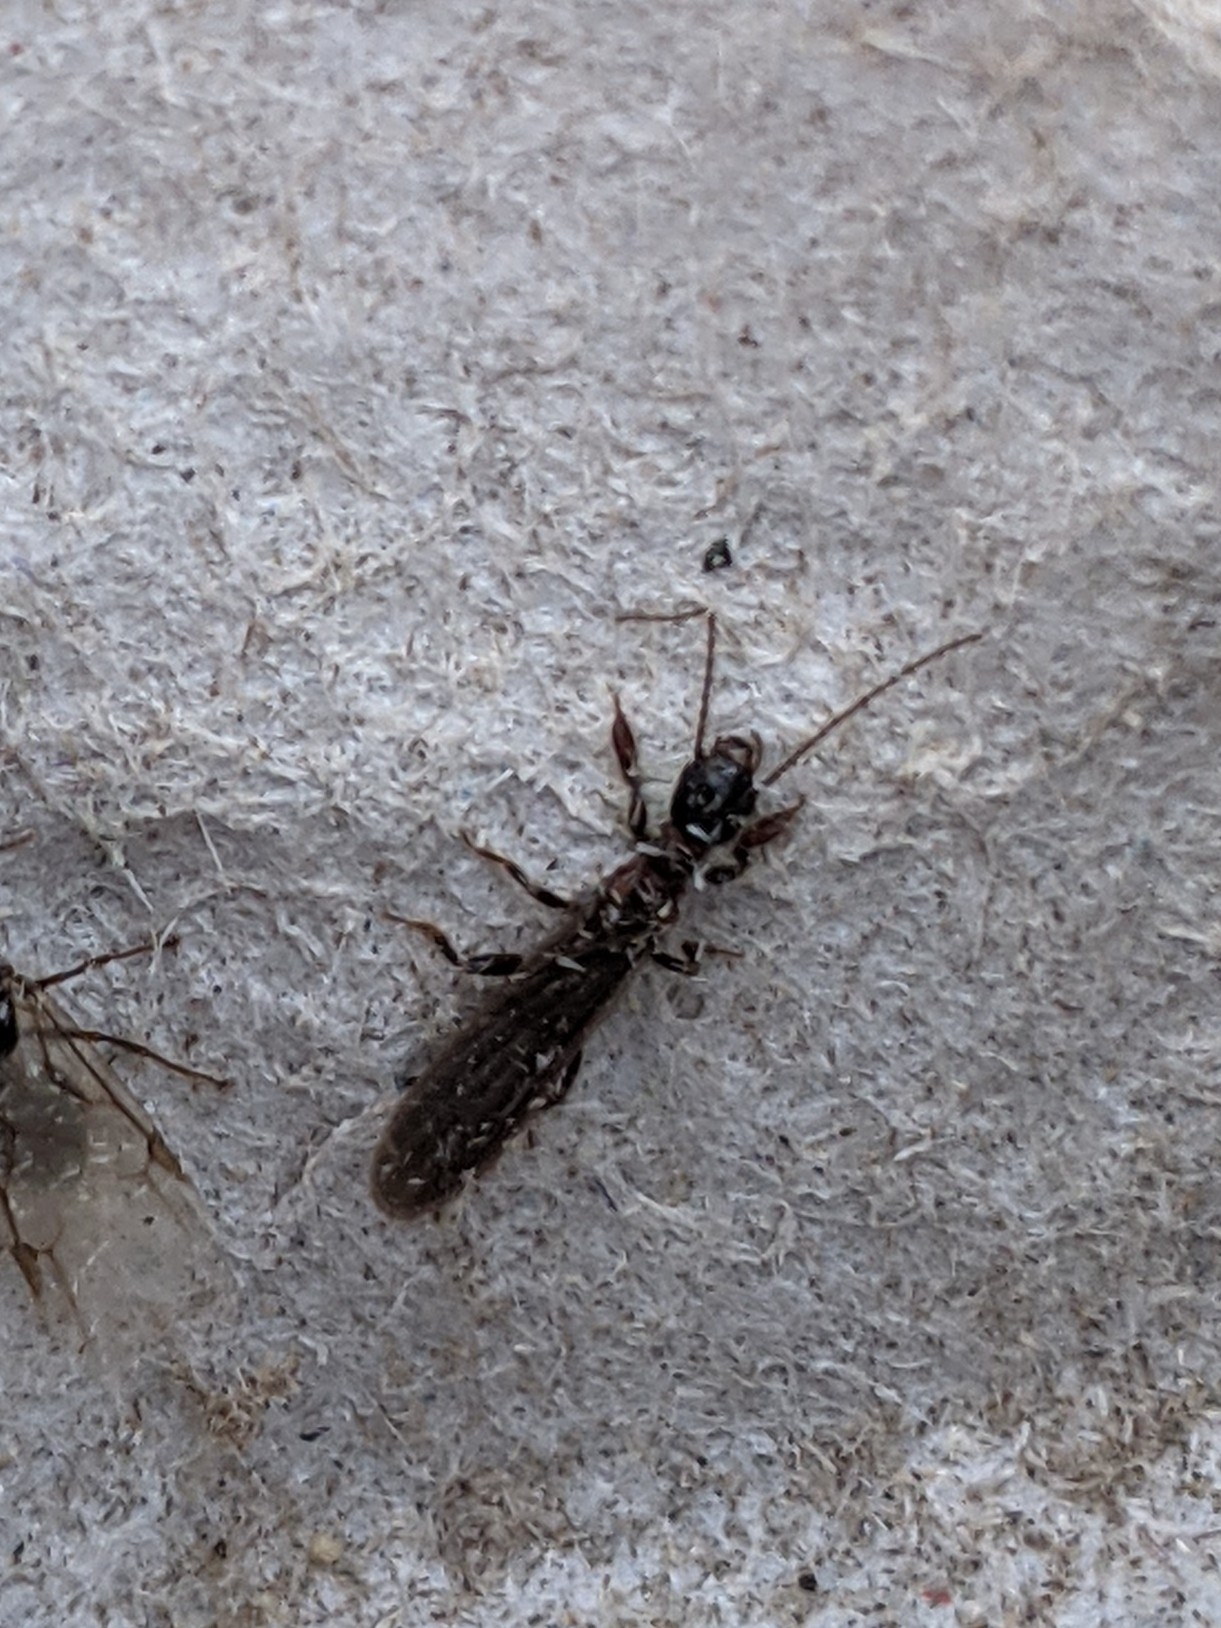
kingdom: Animalia
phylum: Arthropoda
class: Insecta
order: Embioptera
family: Oligotomidae
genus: Oligotoma
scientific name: Oligotoma nigra
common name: Black webspinner
